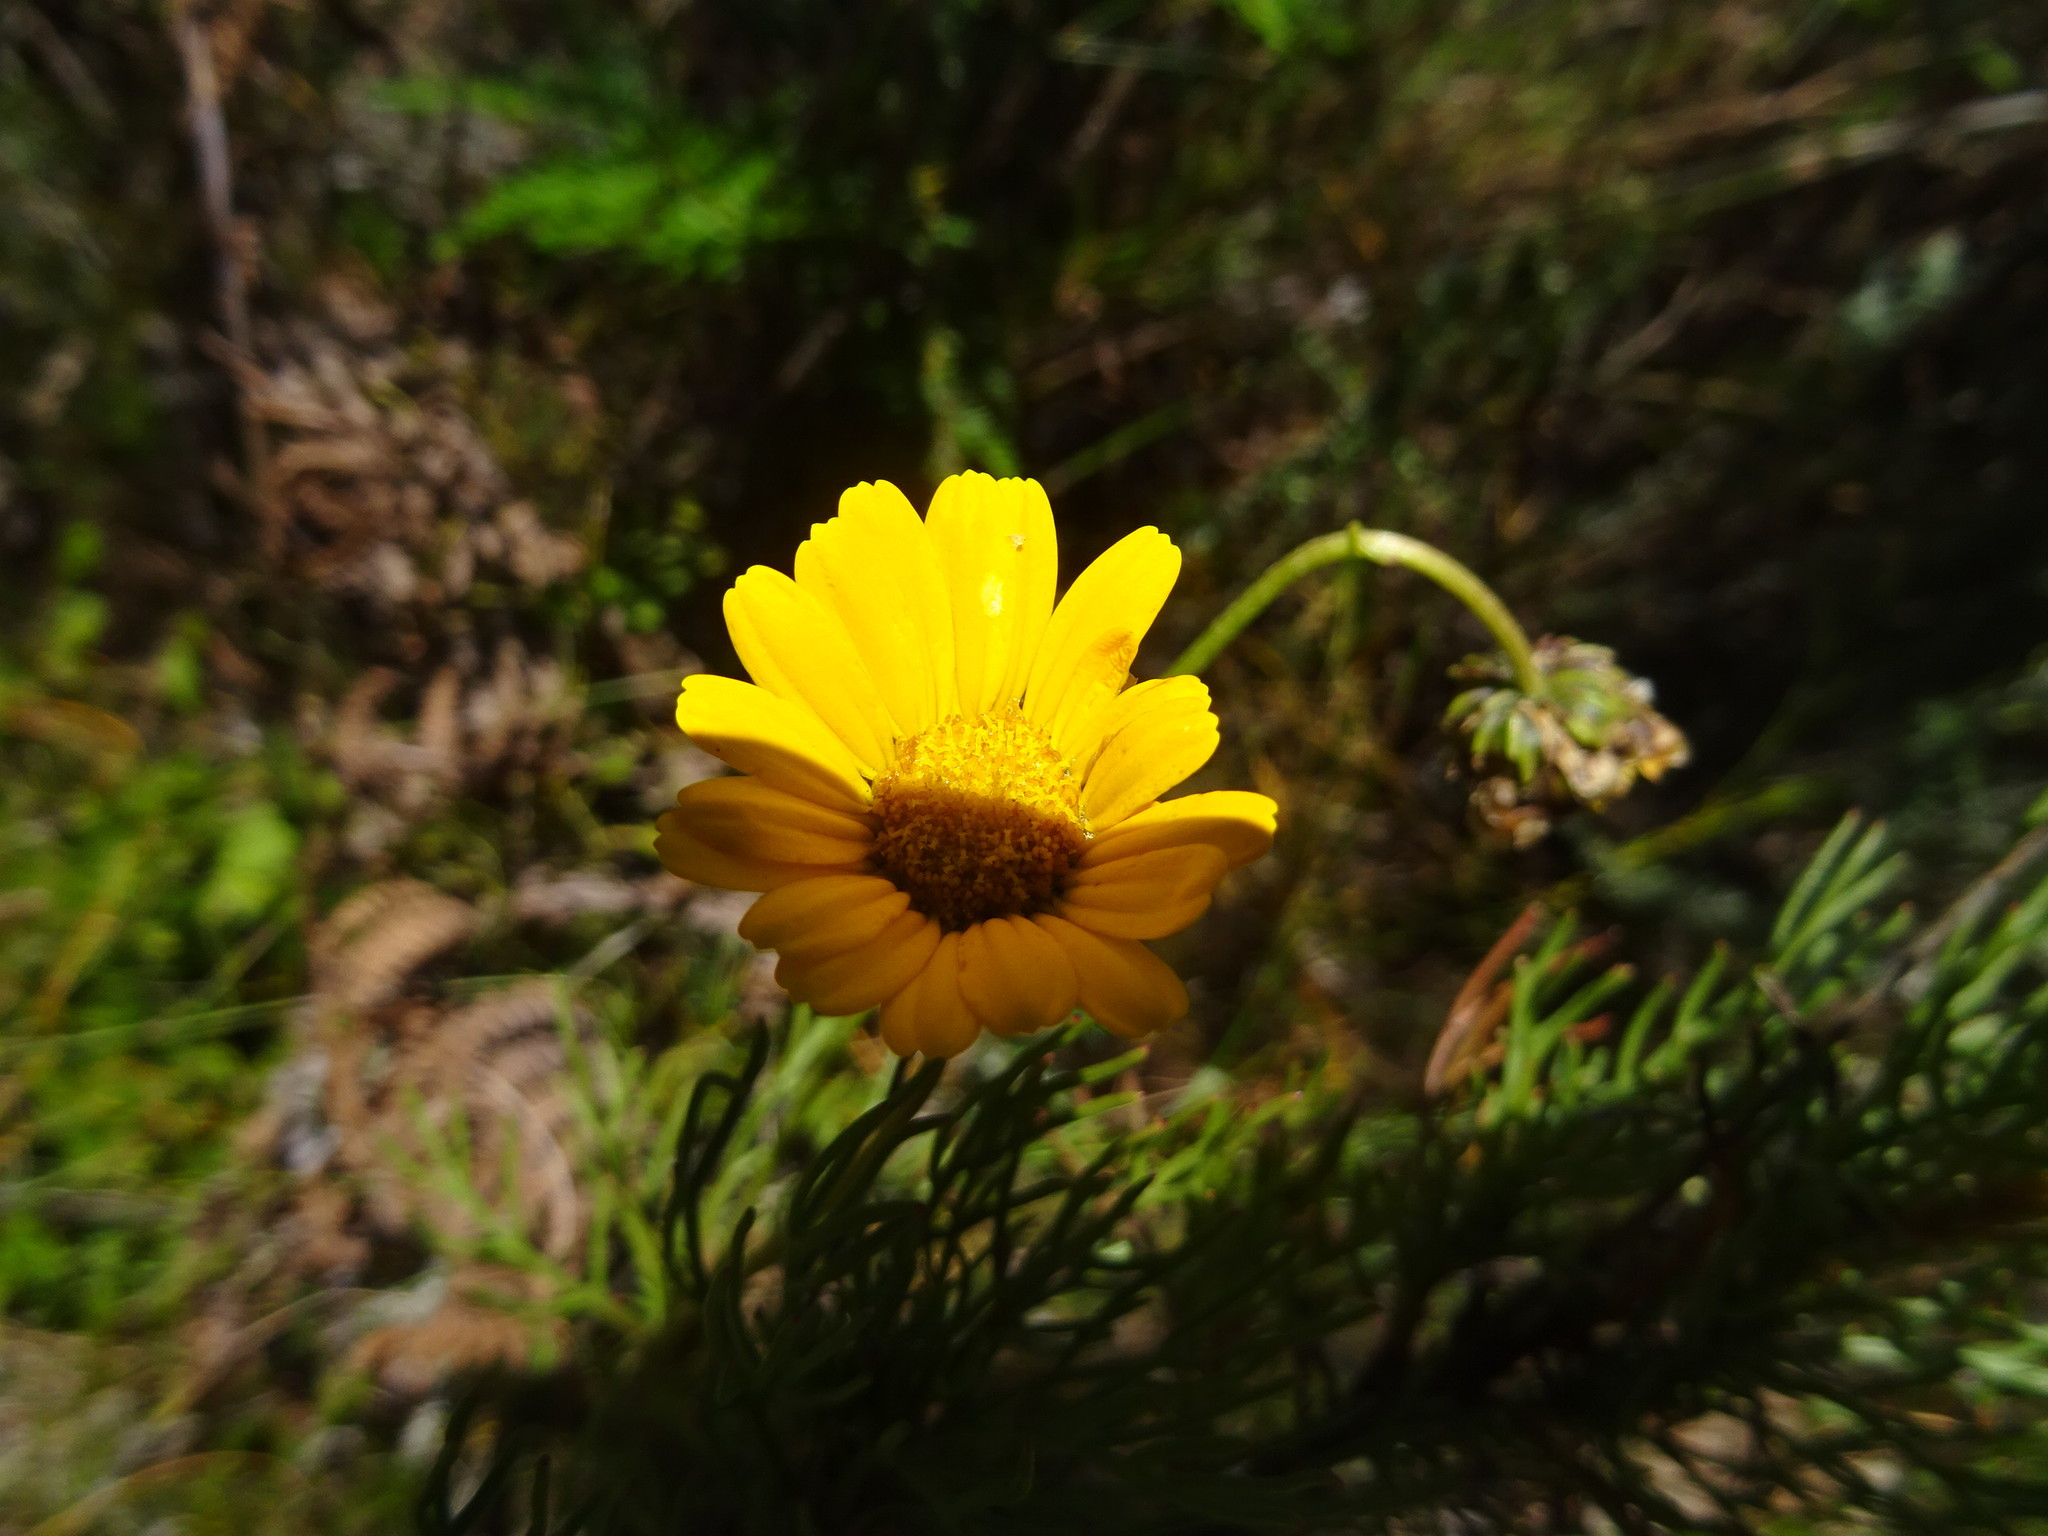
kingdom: Plantae
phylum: Tracheophyta
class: Magnoliopsida
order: Asterales
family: Asteraceae
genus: Euryops
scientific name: Euryops abrotanifolius
